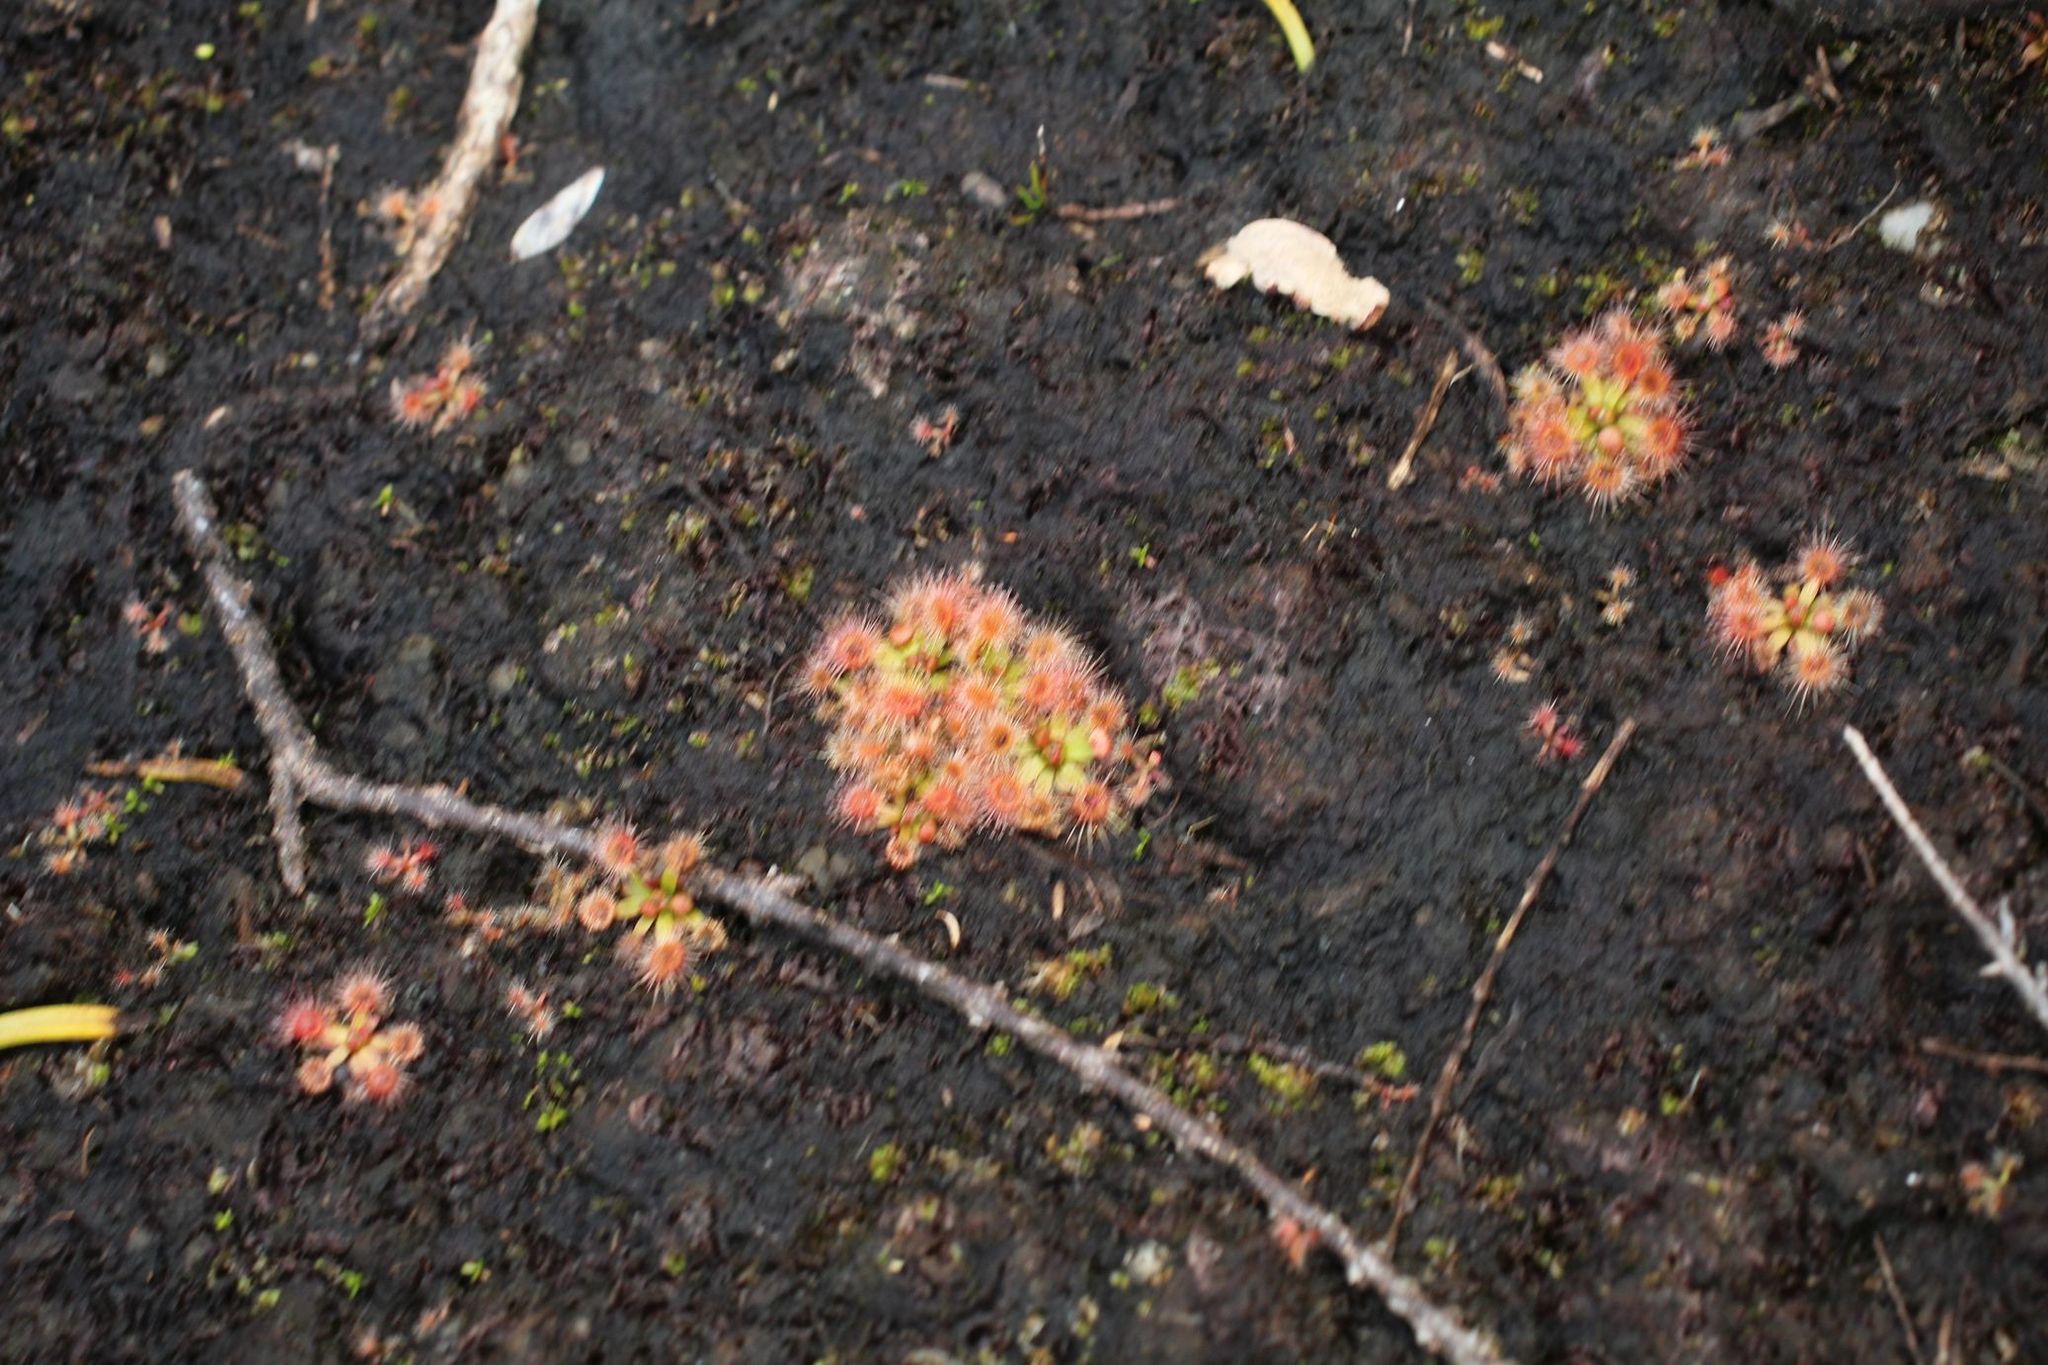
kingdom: Plantae
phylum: Tracheophyta
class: Magnoliopsida
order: Caryophyllales
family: Droseraceae
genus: Drosera
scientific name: Drosera pulchella
